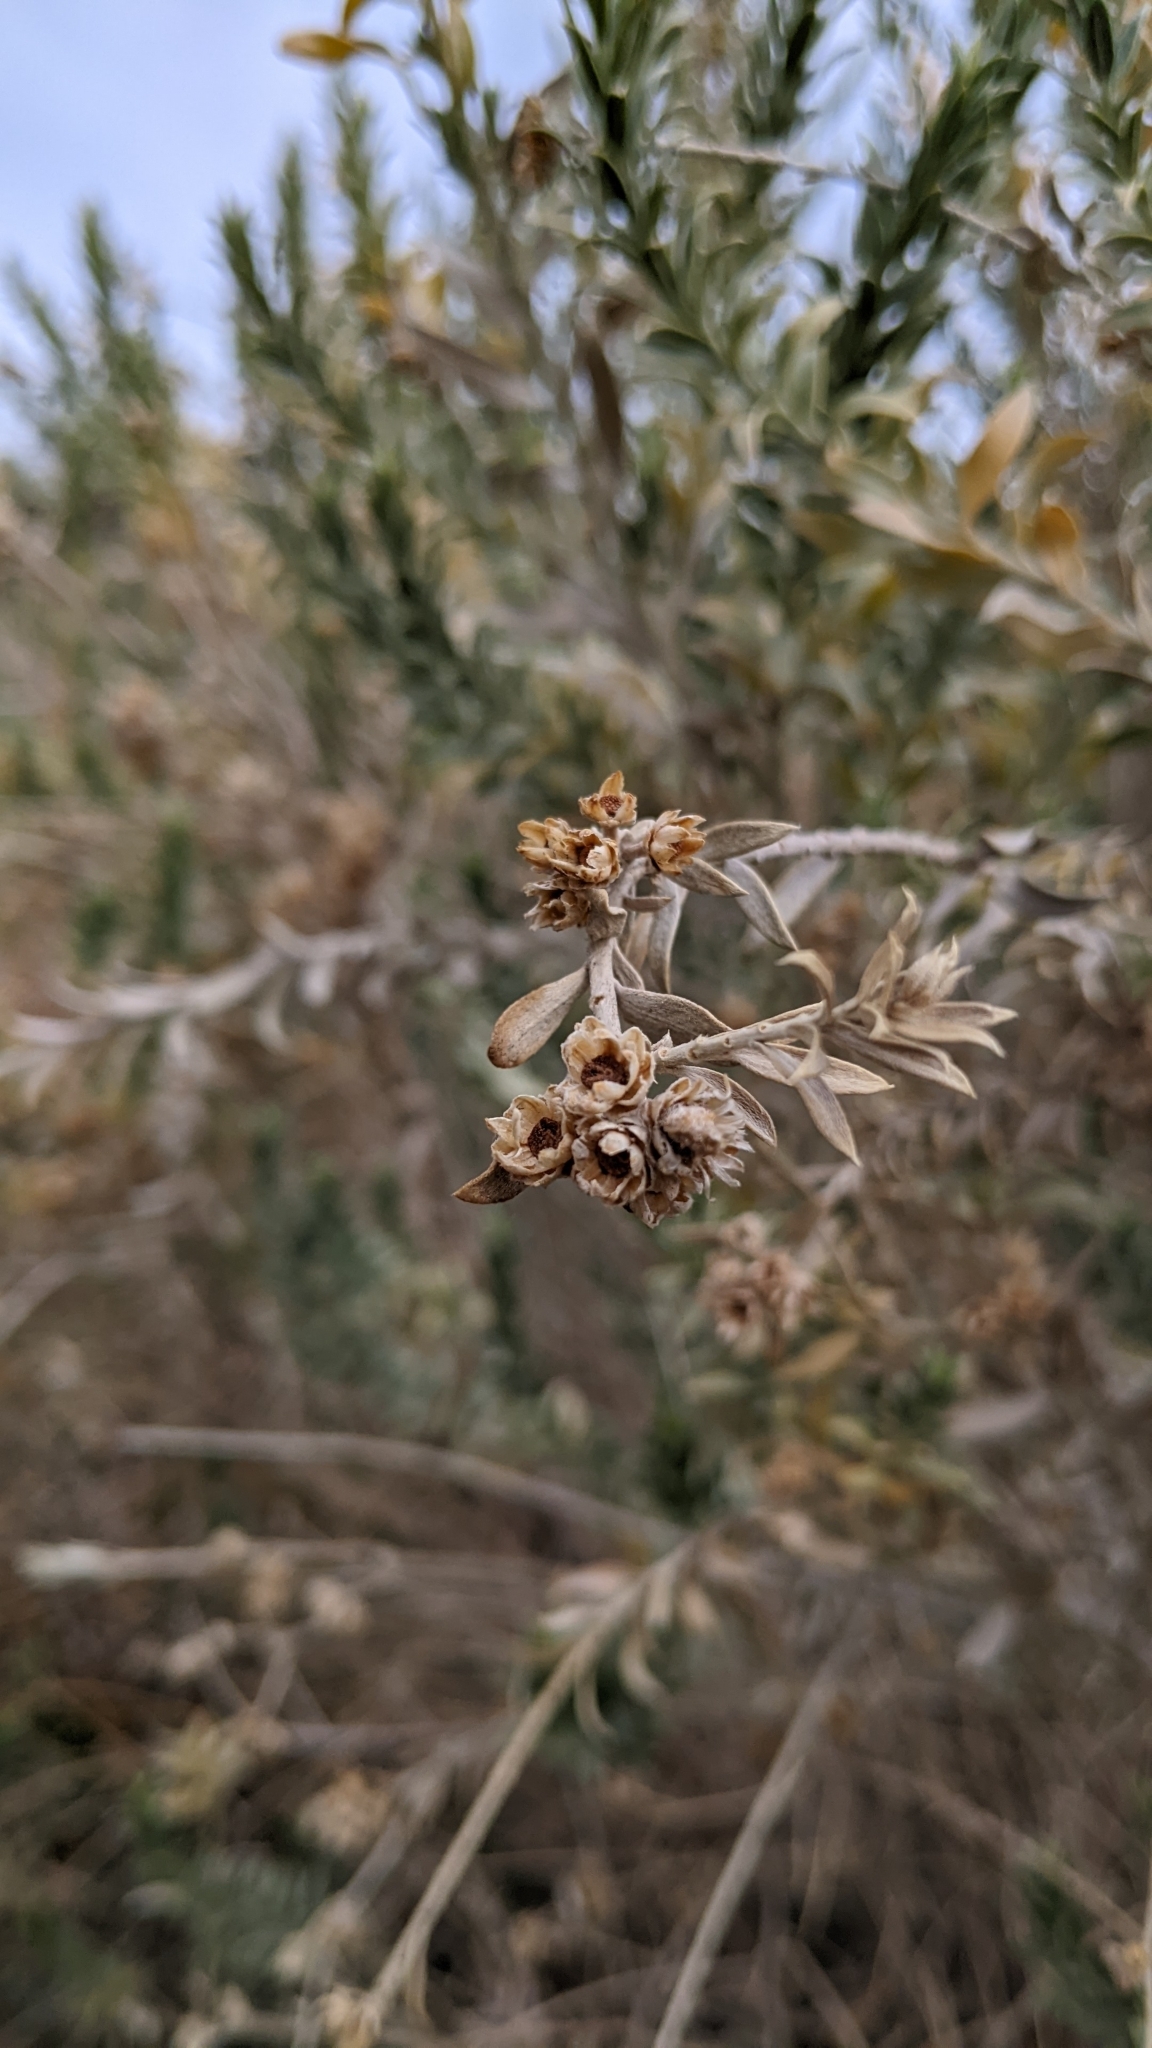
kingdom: Plantae
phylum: Tracheophyta
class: Magnoliopsida
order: Asterales
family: Asteraceae
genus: Pluchea
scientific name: Pluchea sericea
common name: Arrow-weed
